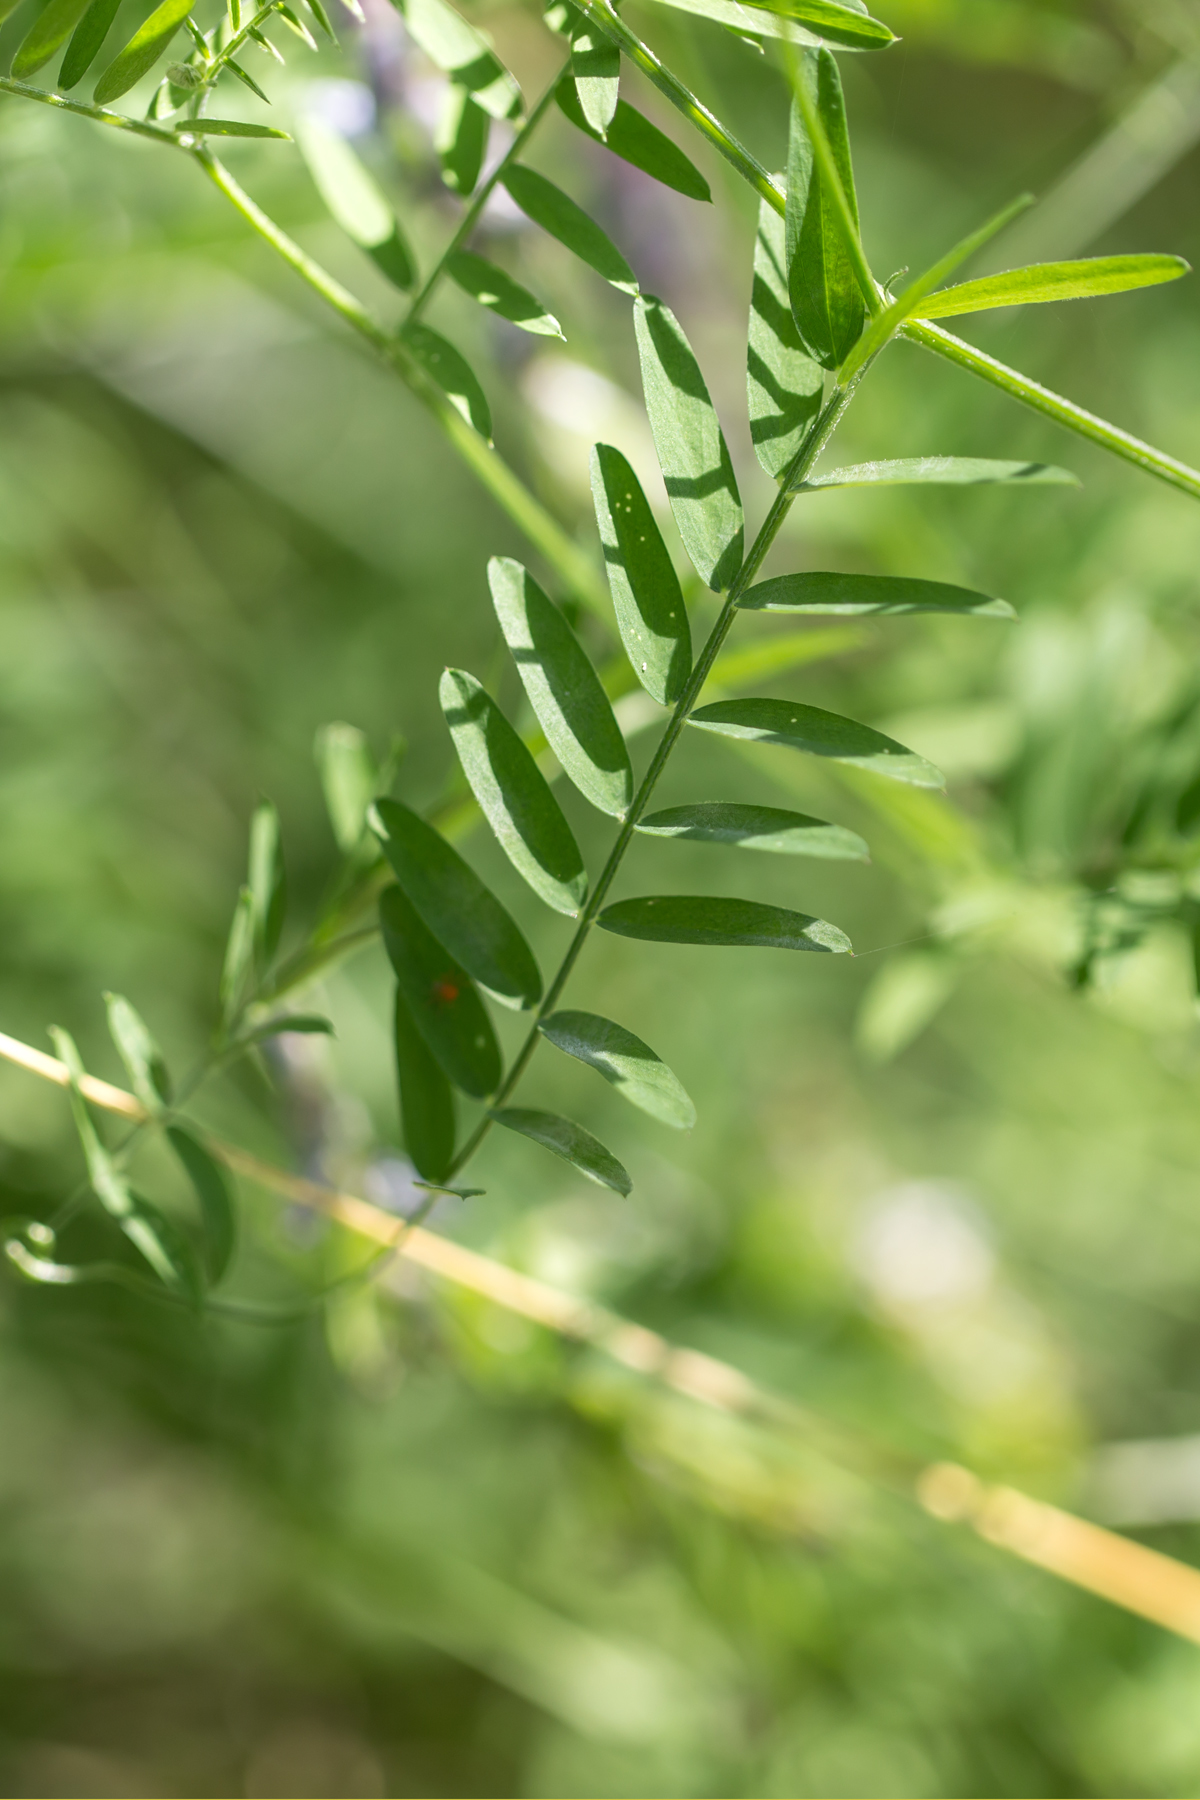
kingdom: Plantae
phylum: Tracheophyta
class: Magnoliopsida
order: Fabales
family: Fabaceae
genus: Vicia
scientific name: Vicia cracca
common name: Bird vetch
